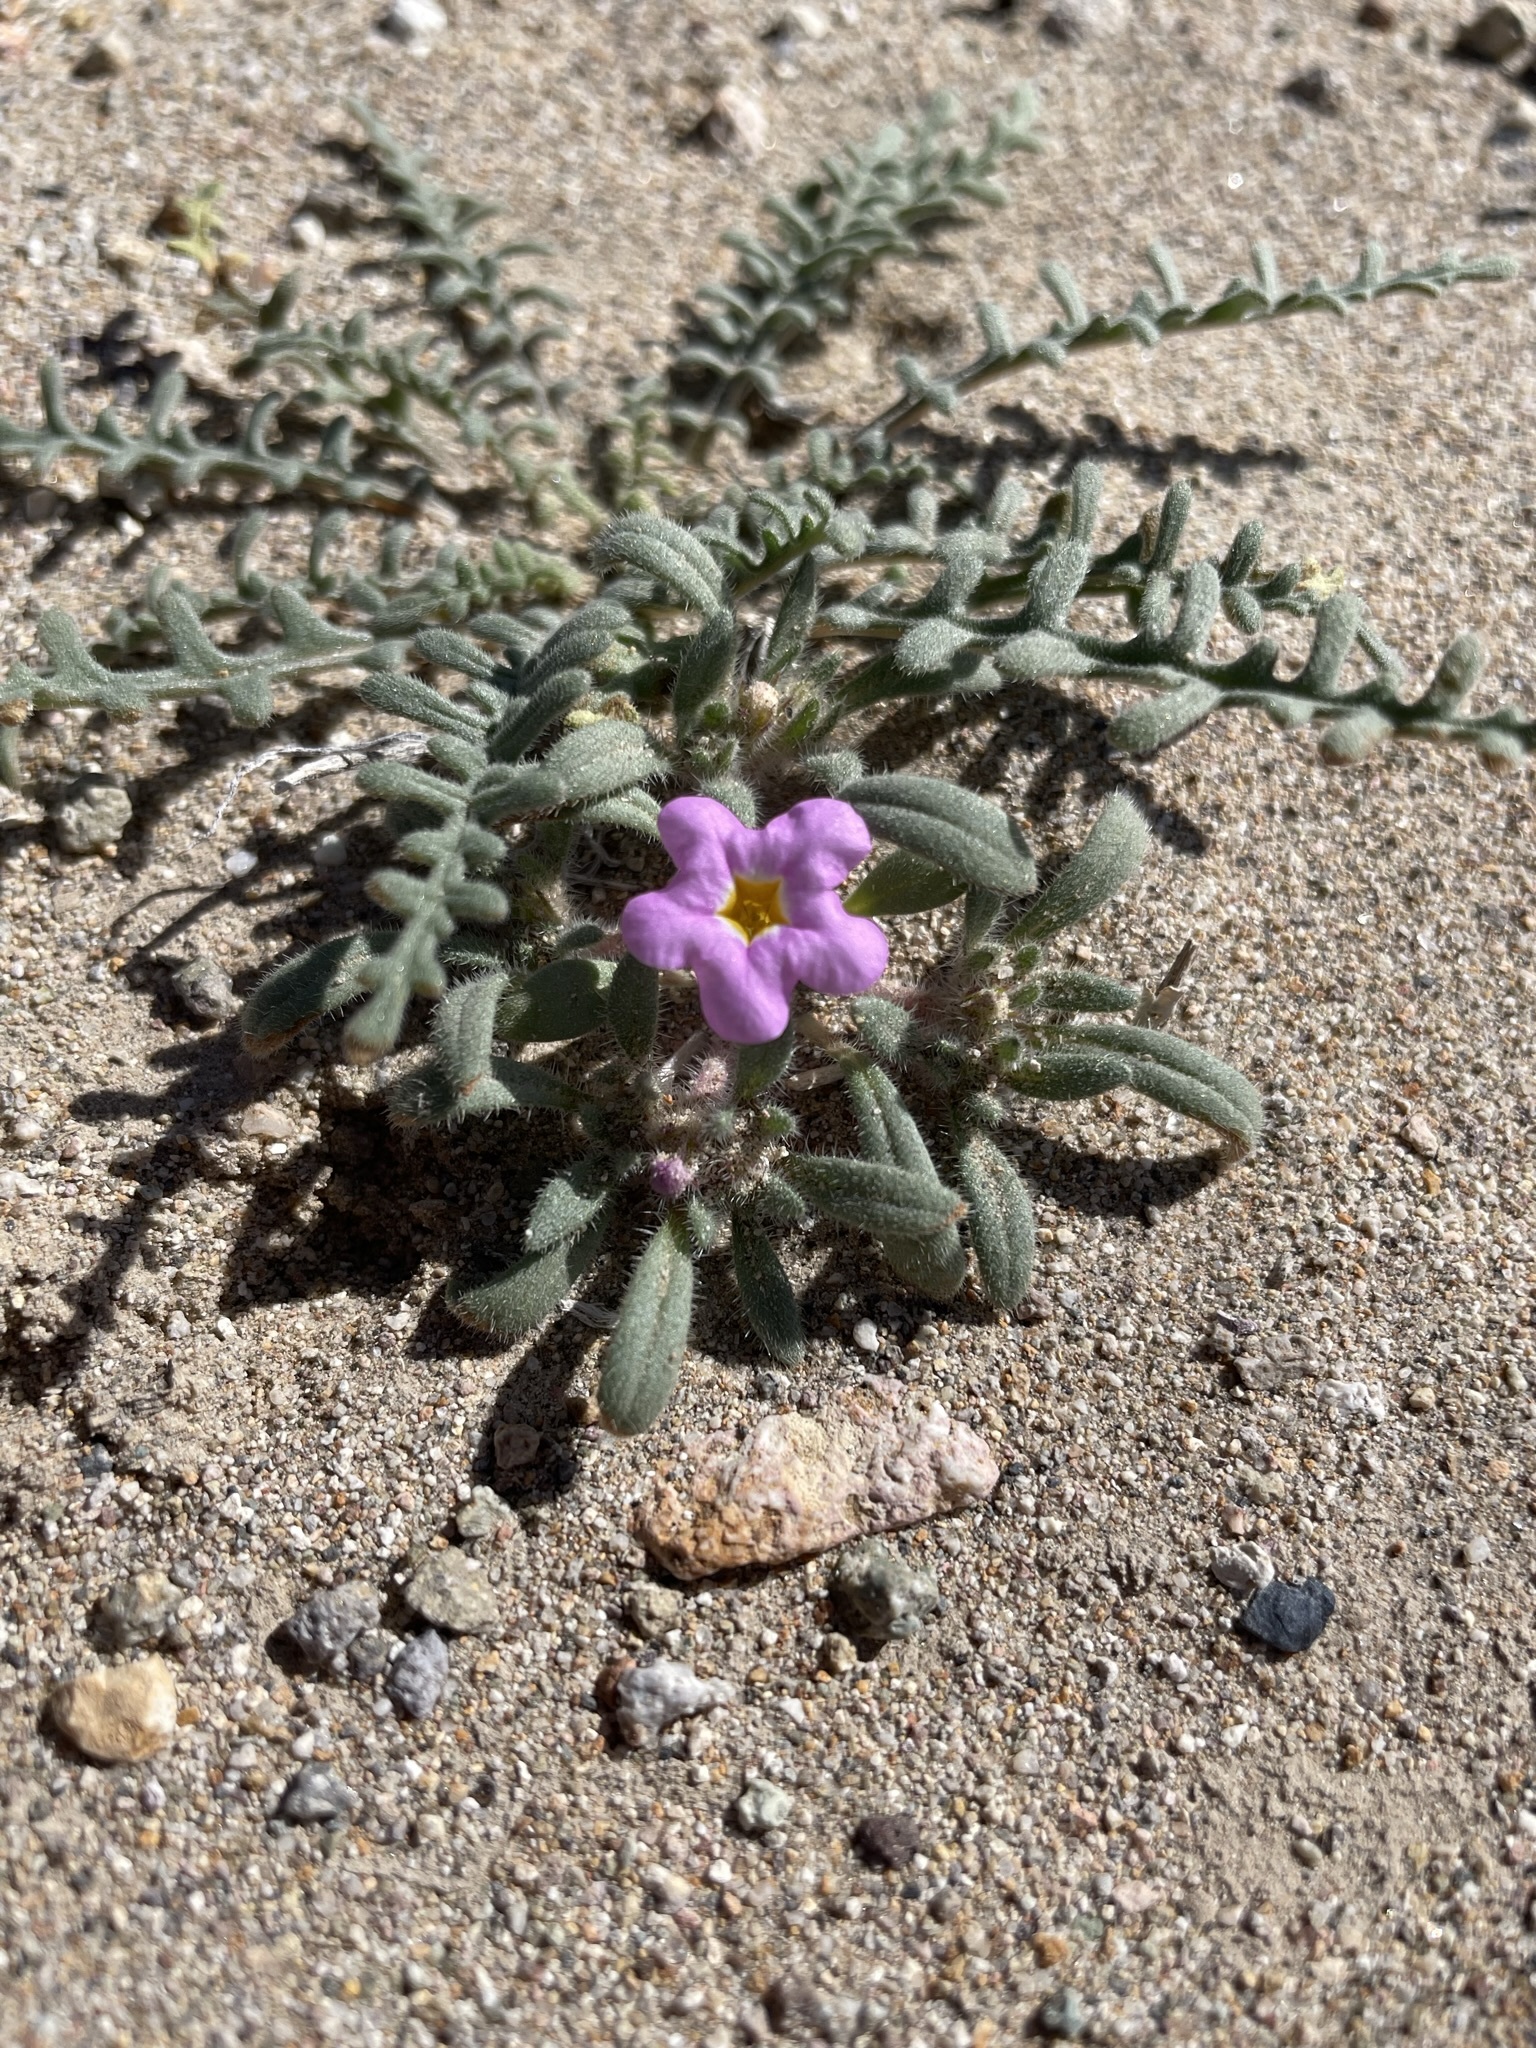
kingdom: Plantae
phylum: Tracheophyta
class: Magnoliopsida
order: Boraginales
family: Namaceae
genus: Nama
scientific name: Nama aretioides
